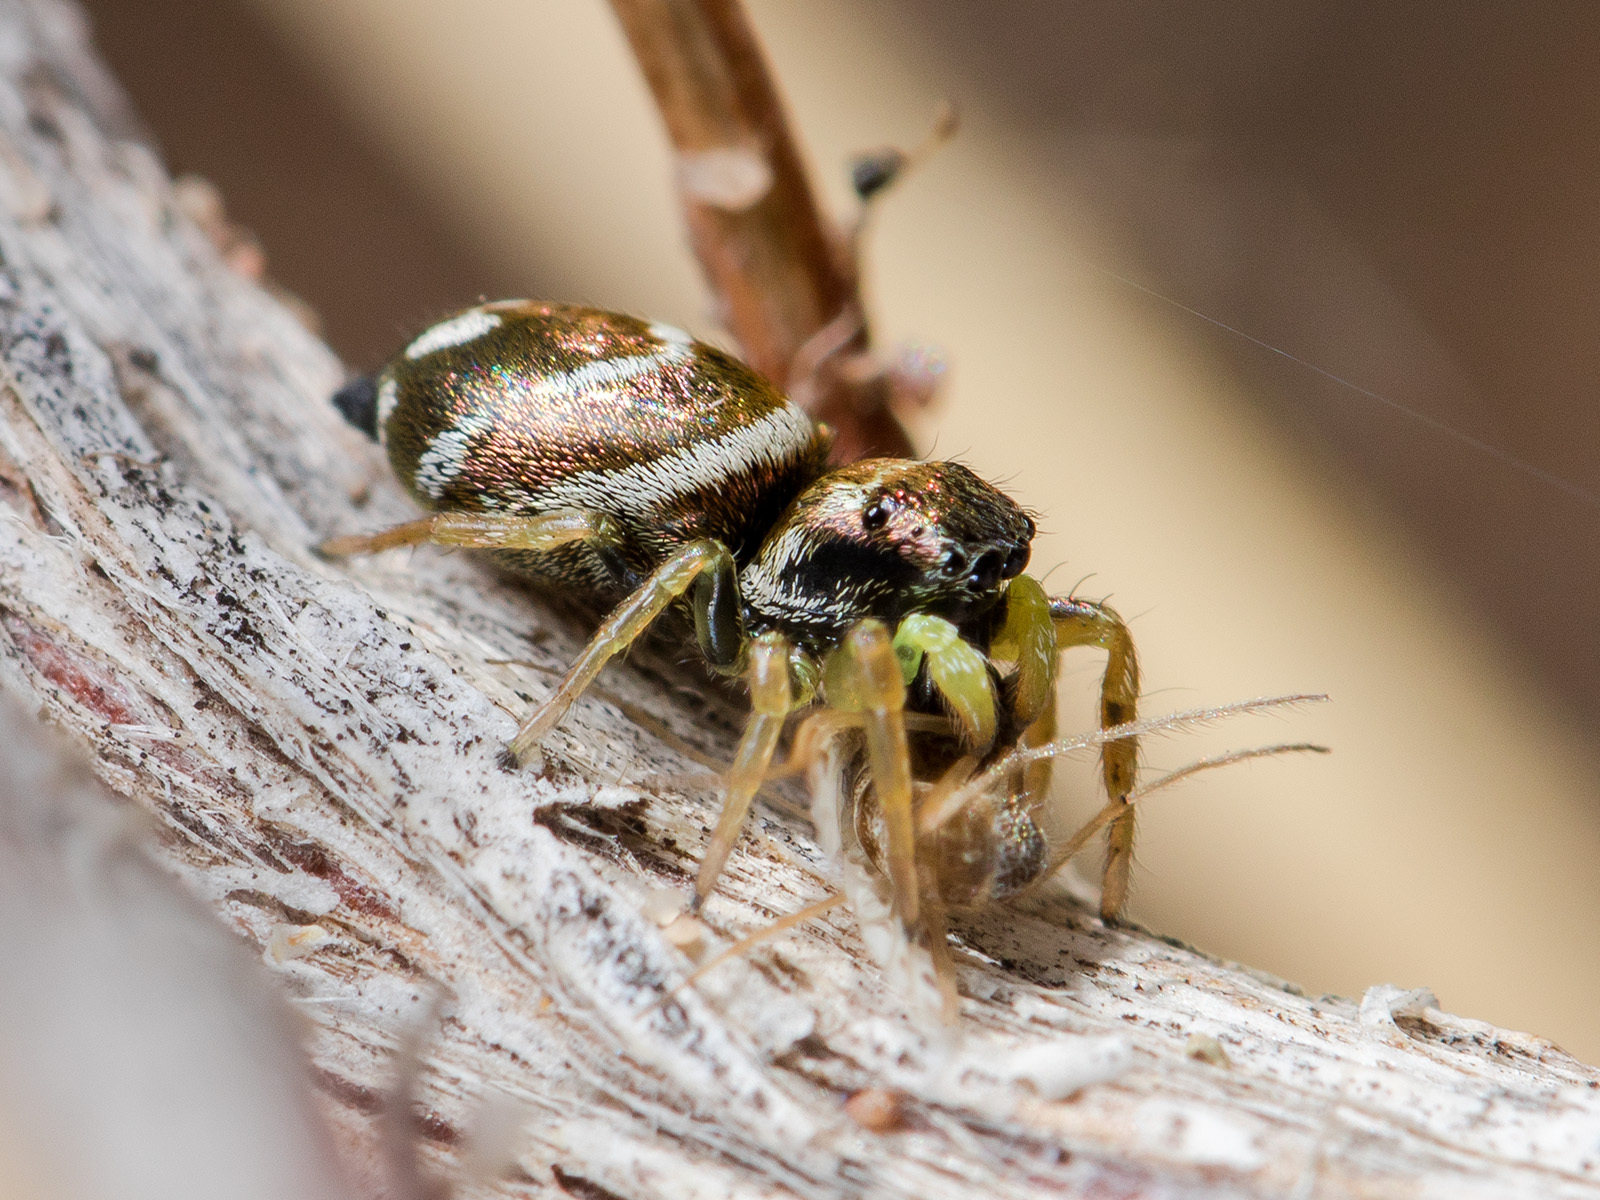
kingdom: Animalia
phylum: Arthropoda
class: Arachnida
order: Araneae
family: Salticidae
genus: Heliophanus
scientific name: Heliophanus chovdensis
